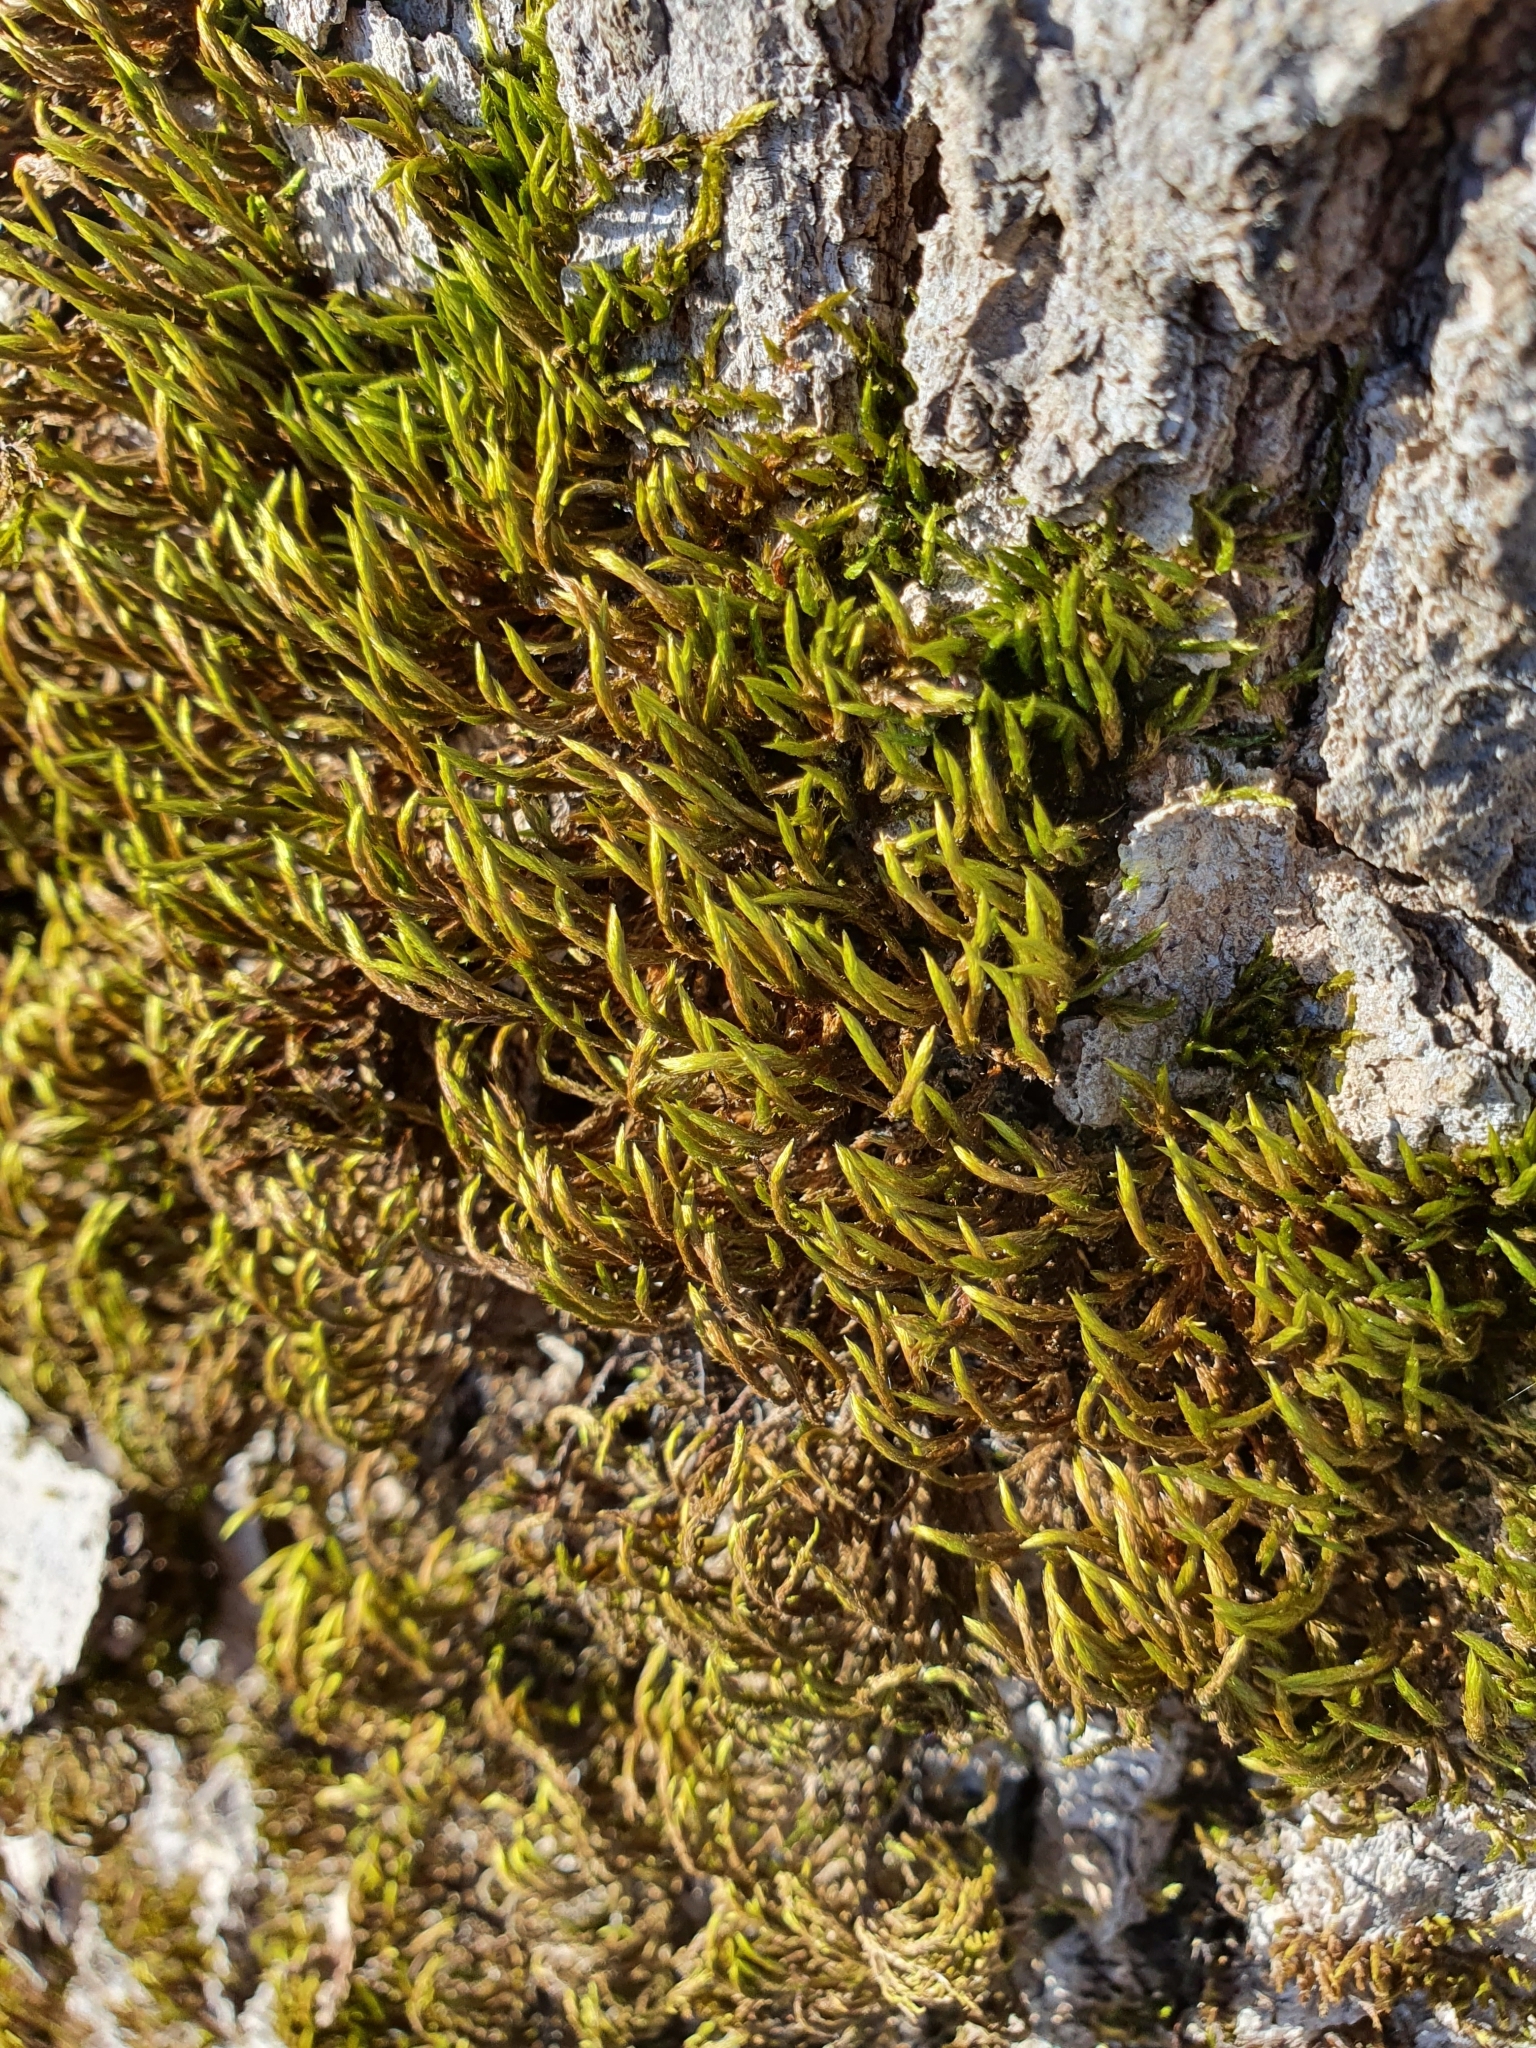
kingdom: Plantae
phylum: Bryophyta
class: Bryopsida
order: Hypnales
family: Leucodontaceae
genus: Leucodon
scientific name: Leucodon sciuroides
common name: Squirrel-tail moss
